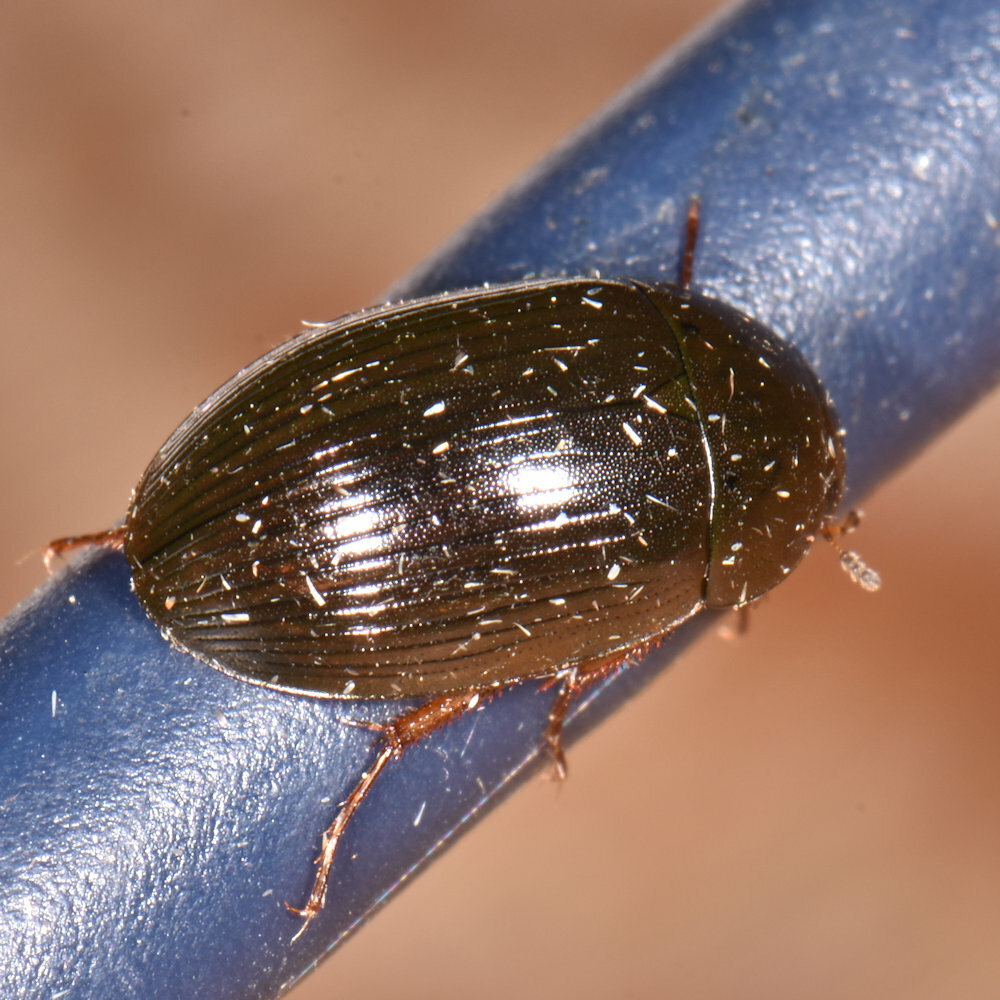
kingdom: Animalia
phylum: Arthropoda
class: Insecta
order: Coleoptera
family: Hydrophilidae
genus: Hydrobius
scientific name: Hydrobius fuscipes
